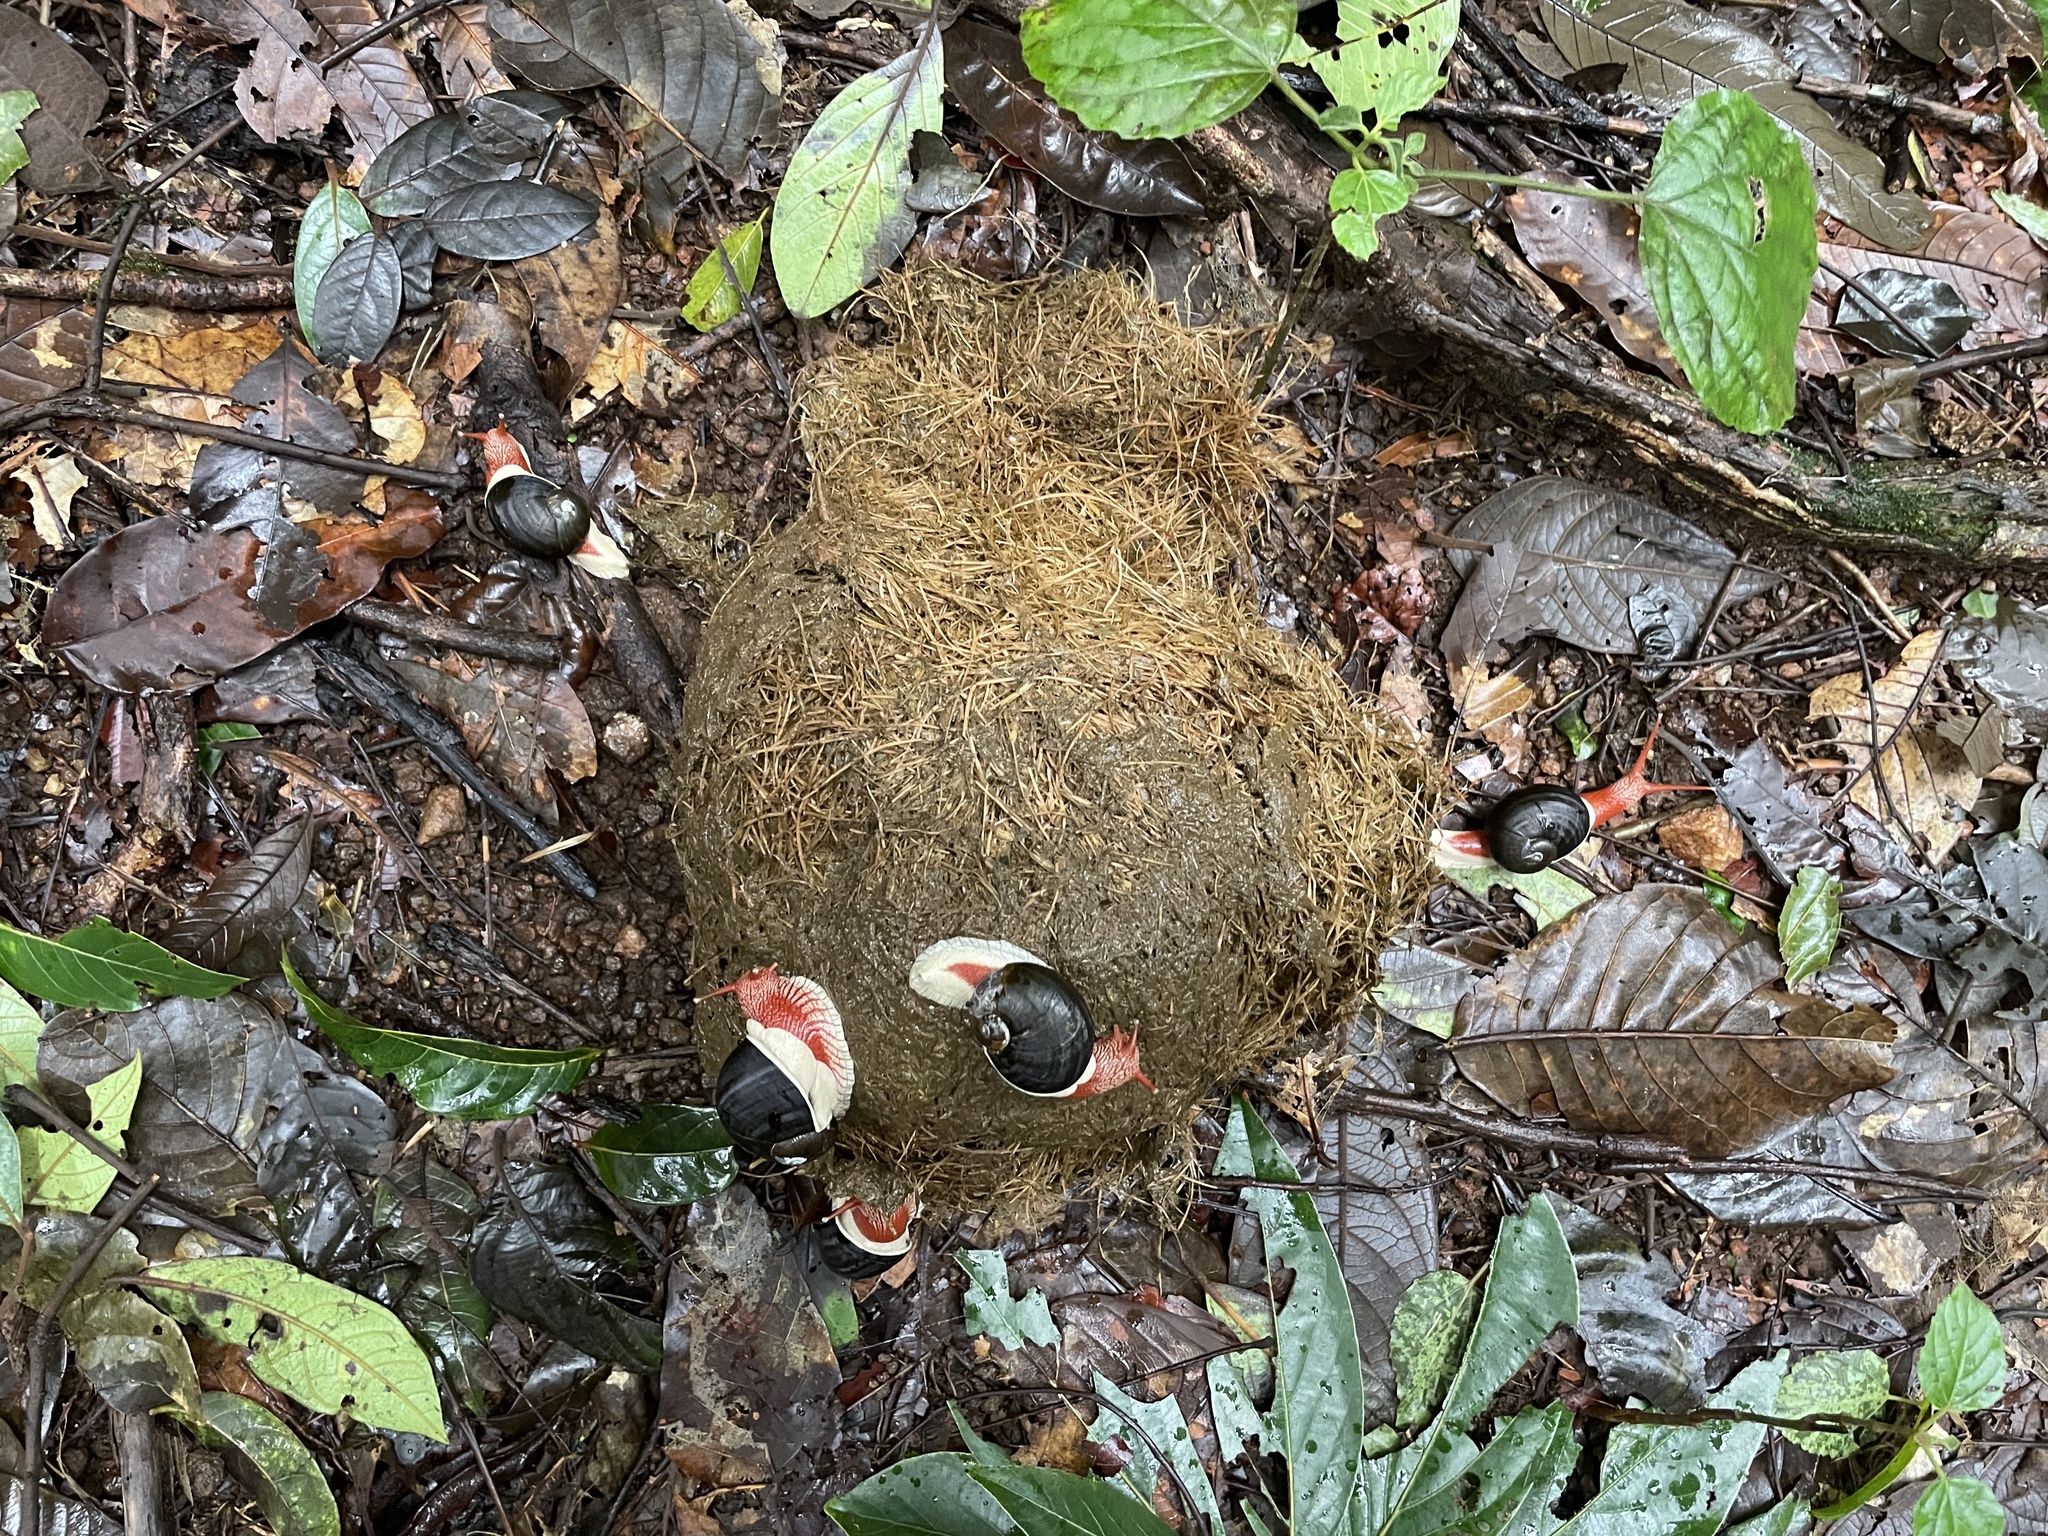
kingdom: Animalia
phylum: Mollusca
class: Gastropoda
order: Stylommatophora
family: Ariophantidae
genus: Indrella
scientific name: Indrella ampulla
